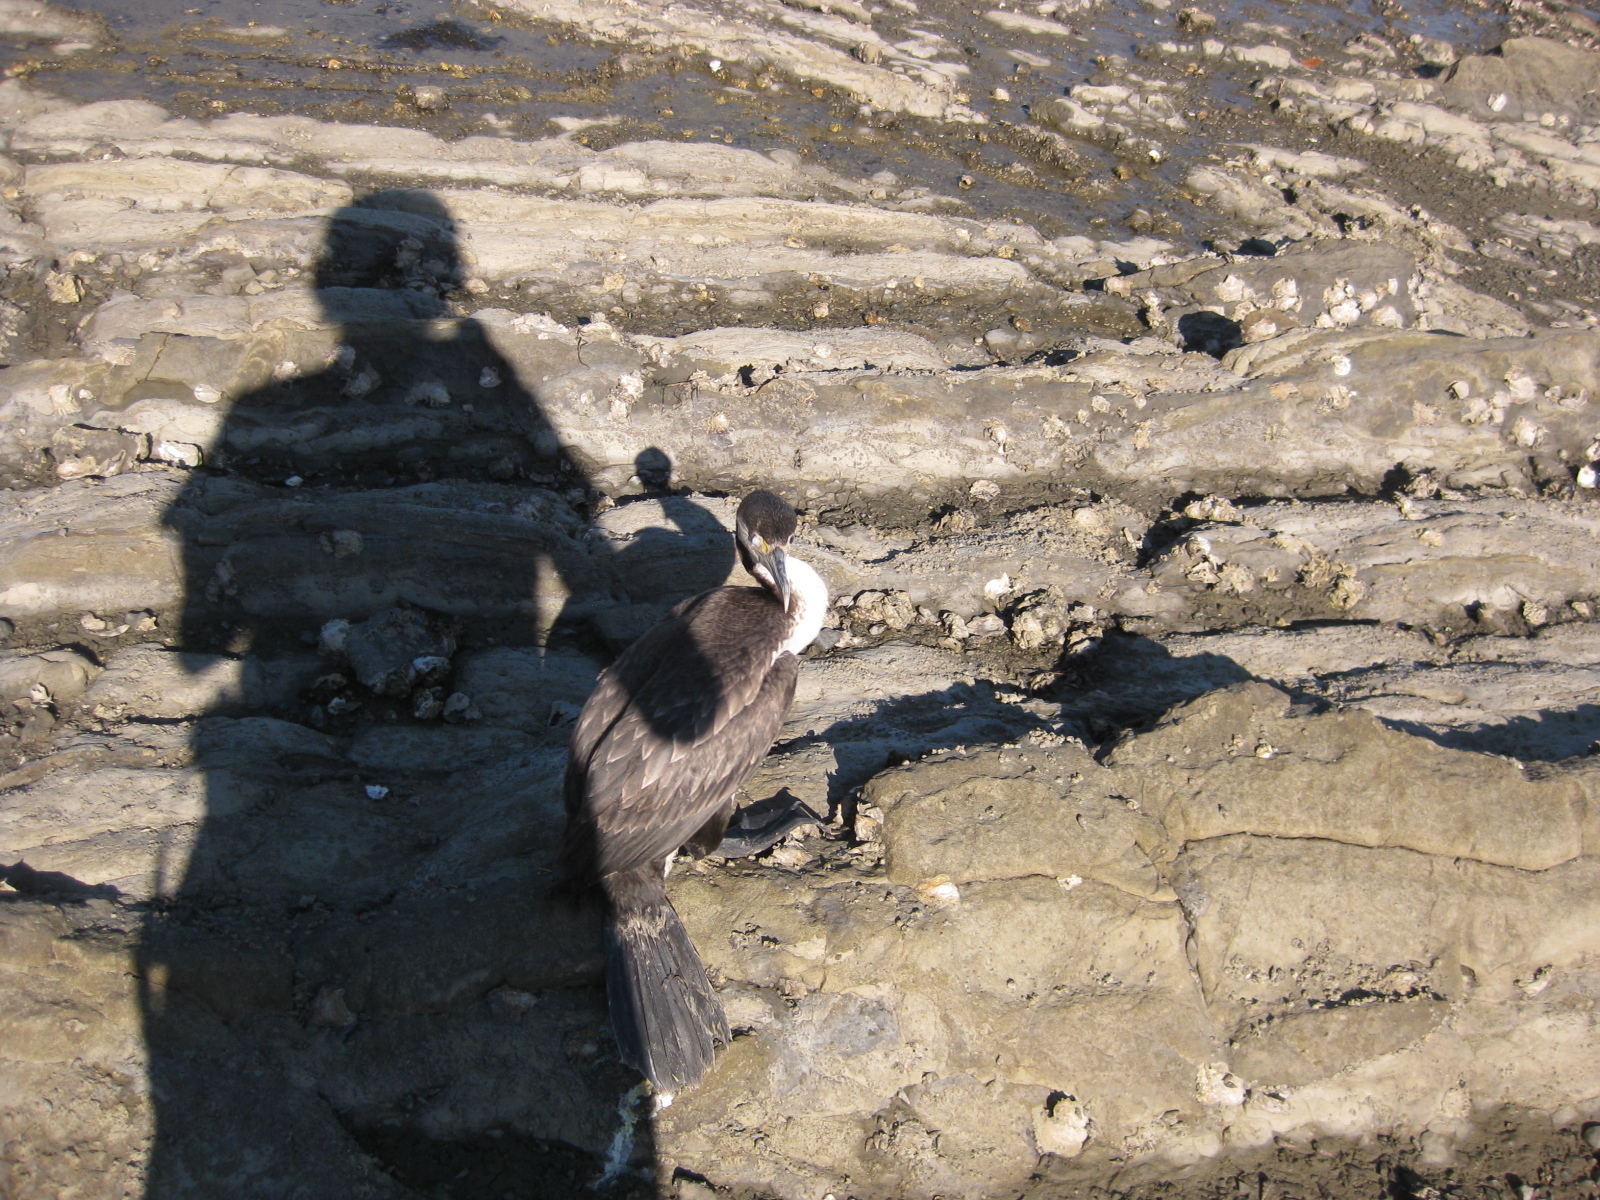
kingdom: Animalia
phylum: Chordata
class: Aves
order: Suliformes
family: Phalacrocoracidae
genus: Phalacrocorax
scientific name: Phalacrocorax varius
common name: Pied cormorant
